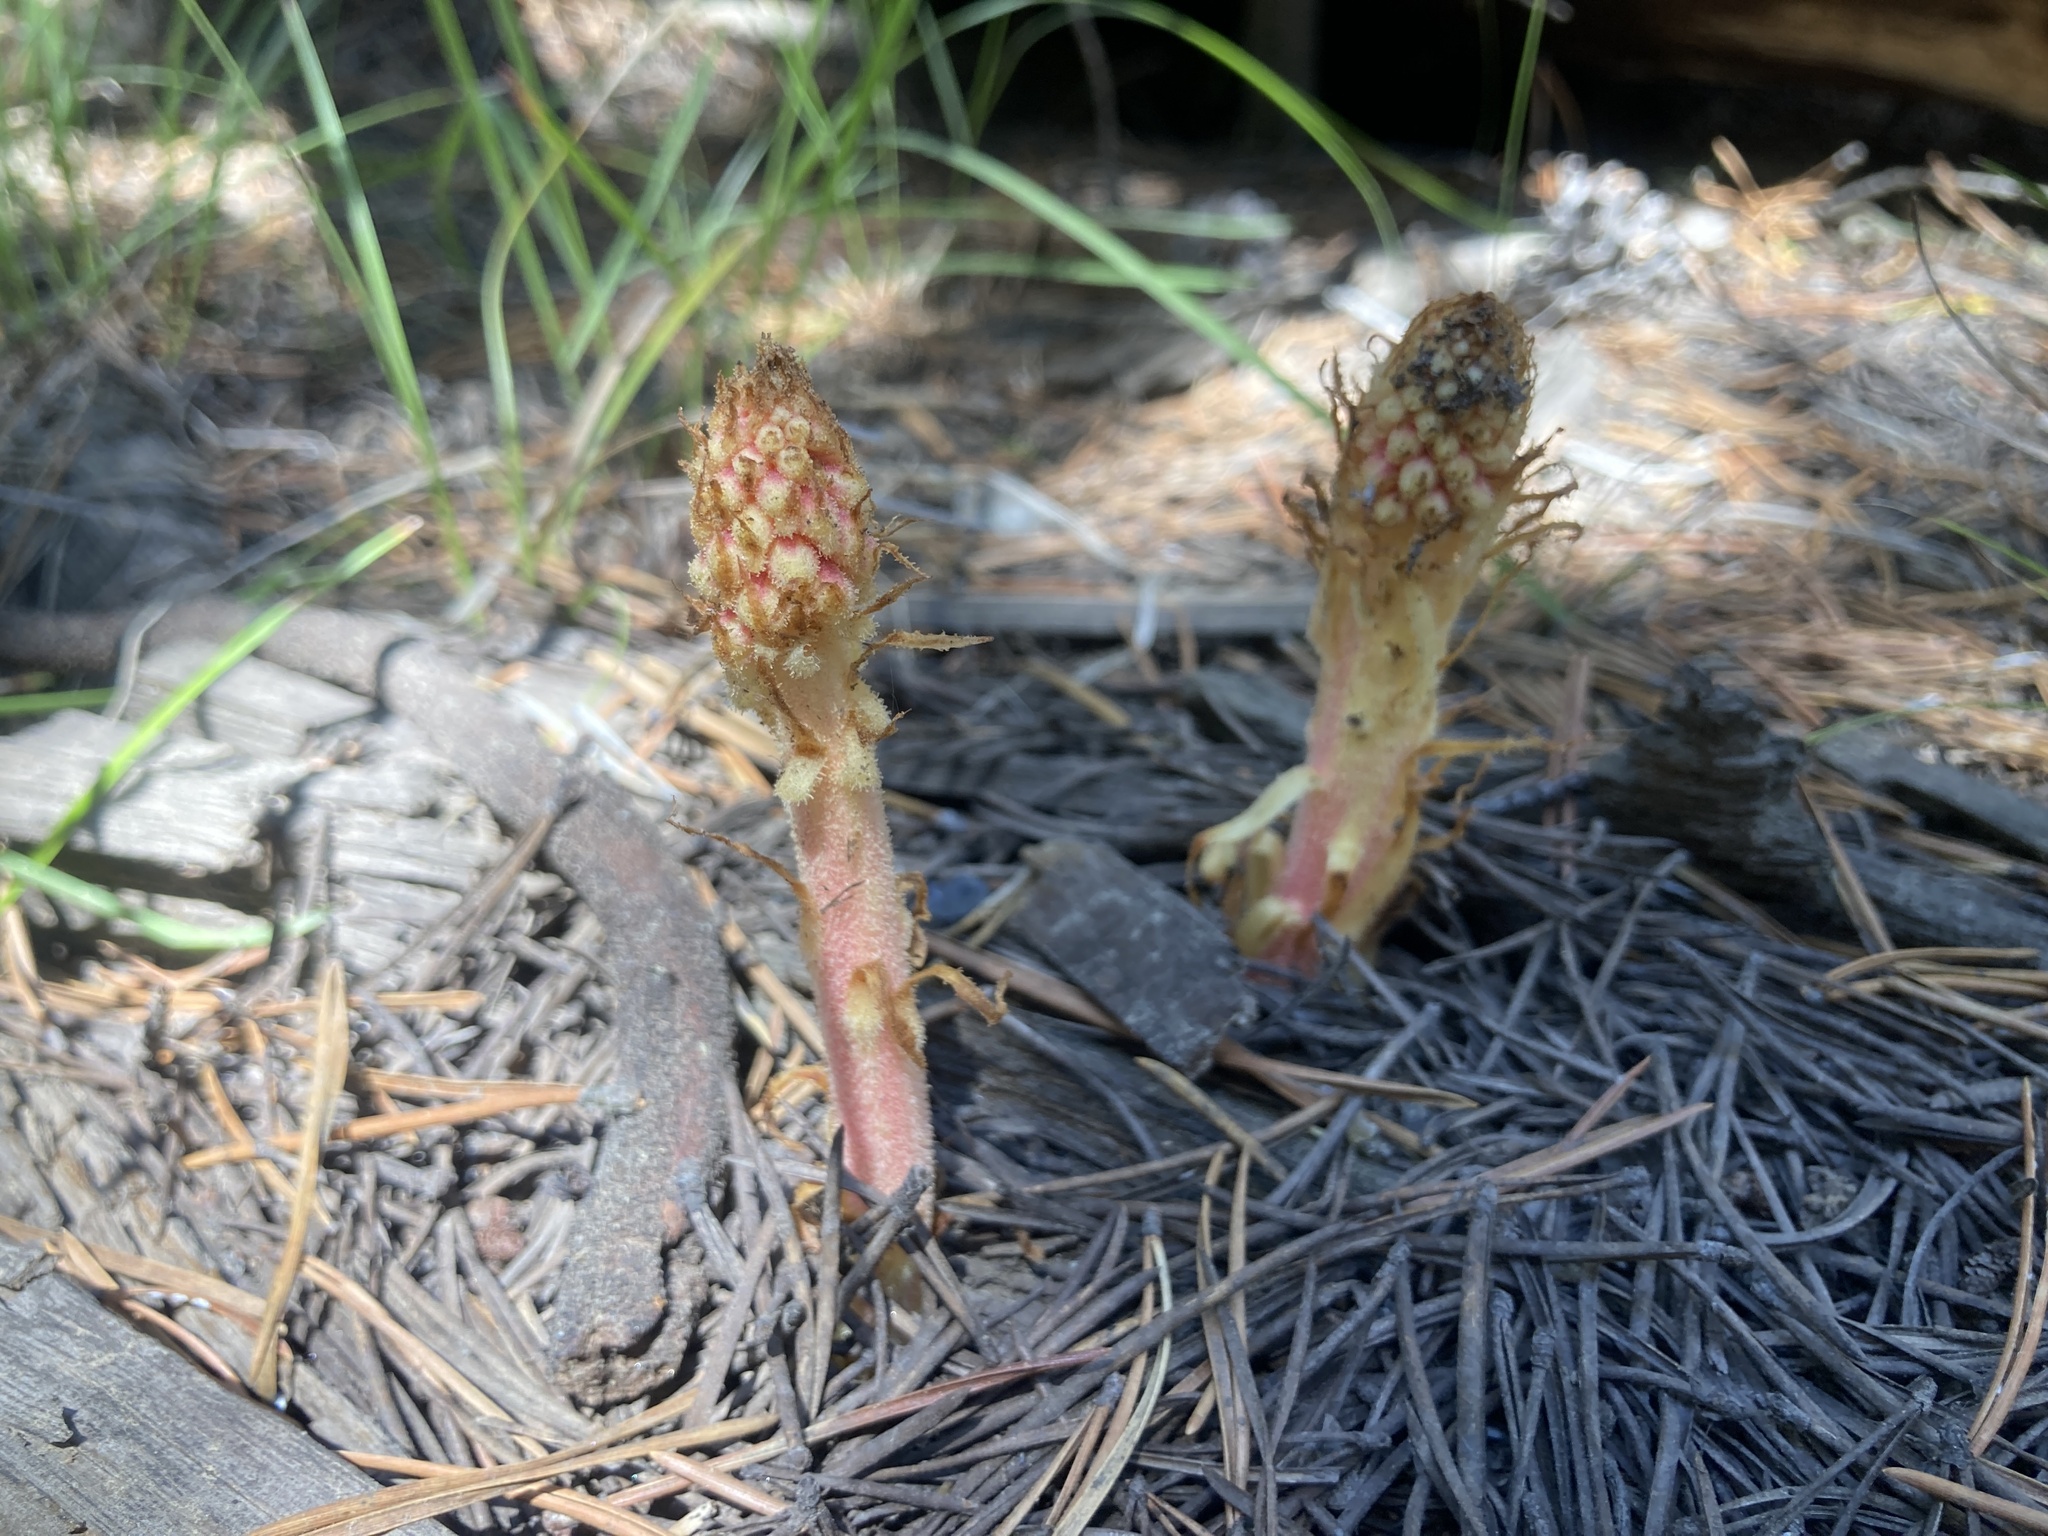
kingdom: Plantae
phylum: Tracheophyta
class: Magnoliopsida
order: Ericales
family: Ericaceae
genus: Pterospora
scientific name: Pterospora andromedea
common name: Giant bird's-nest
